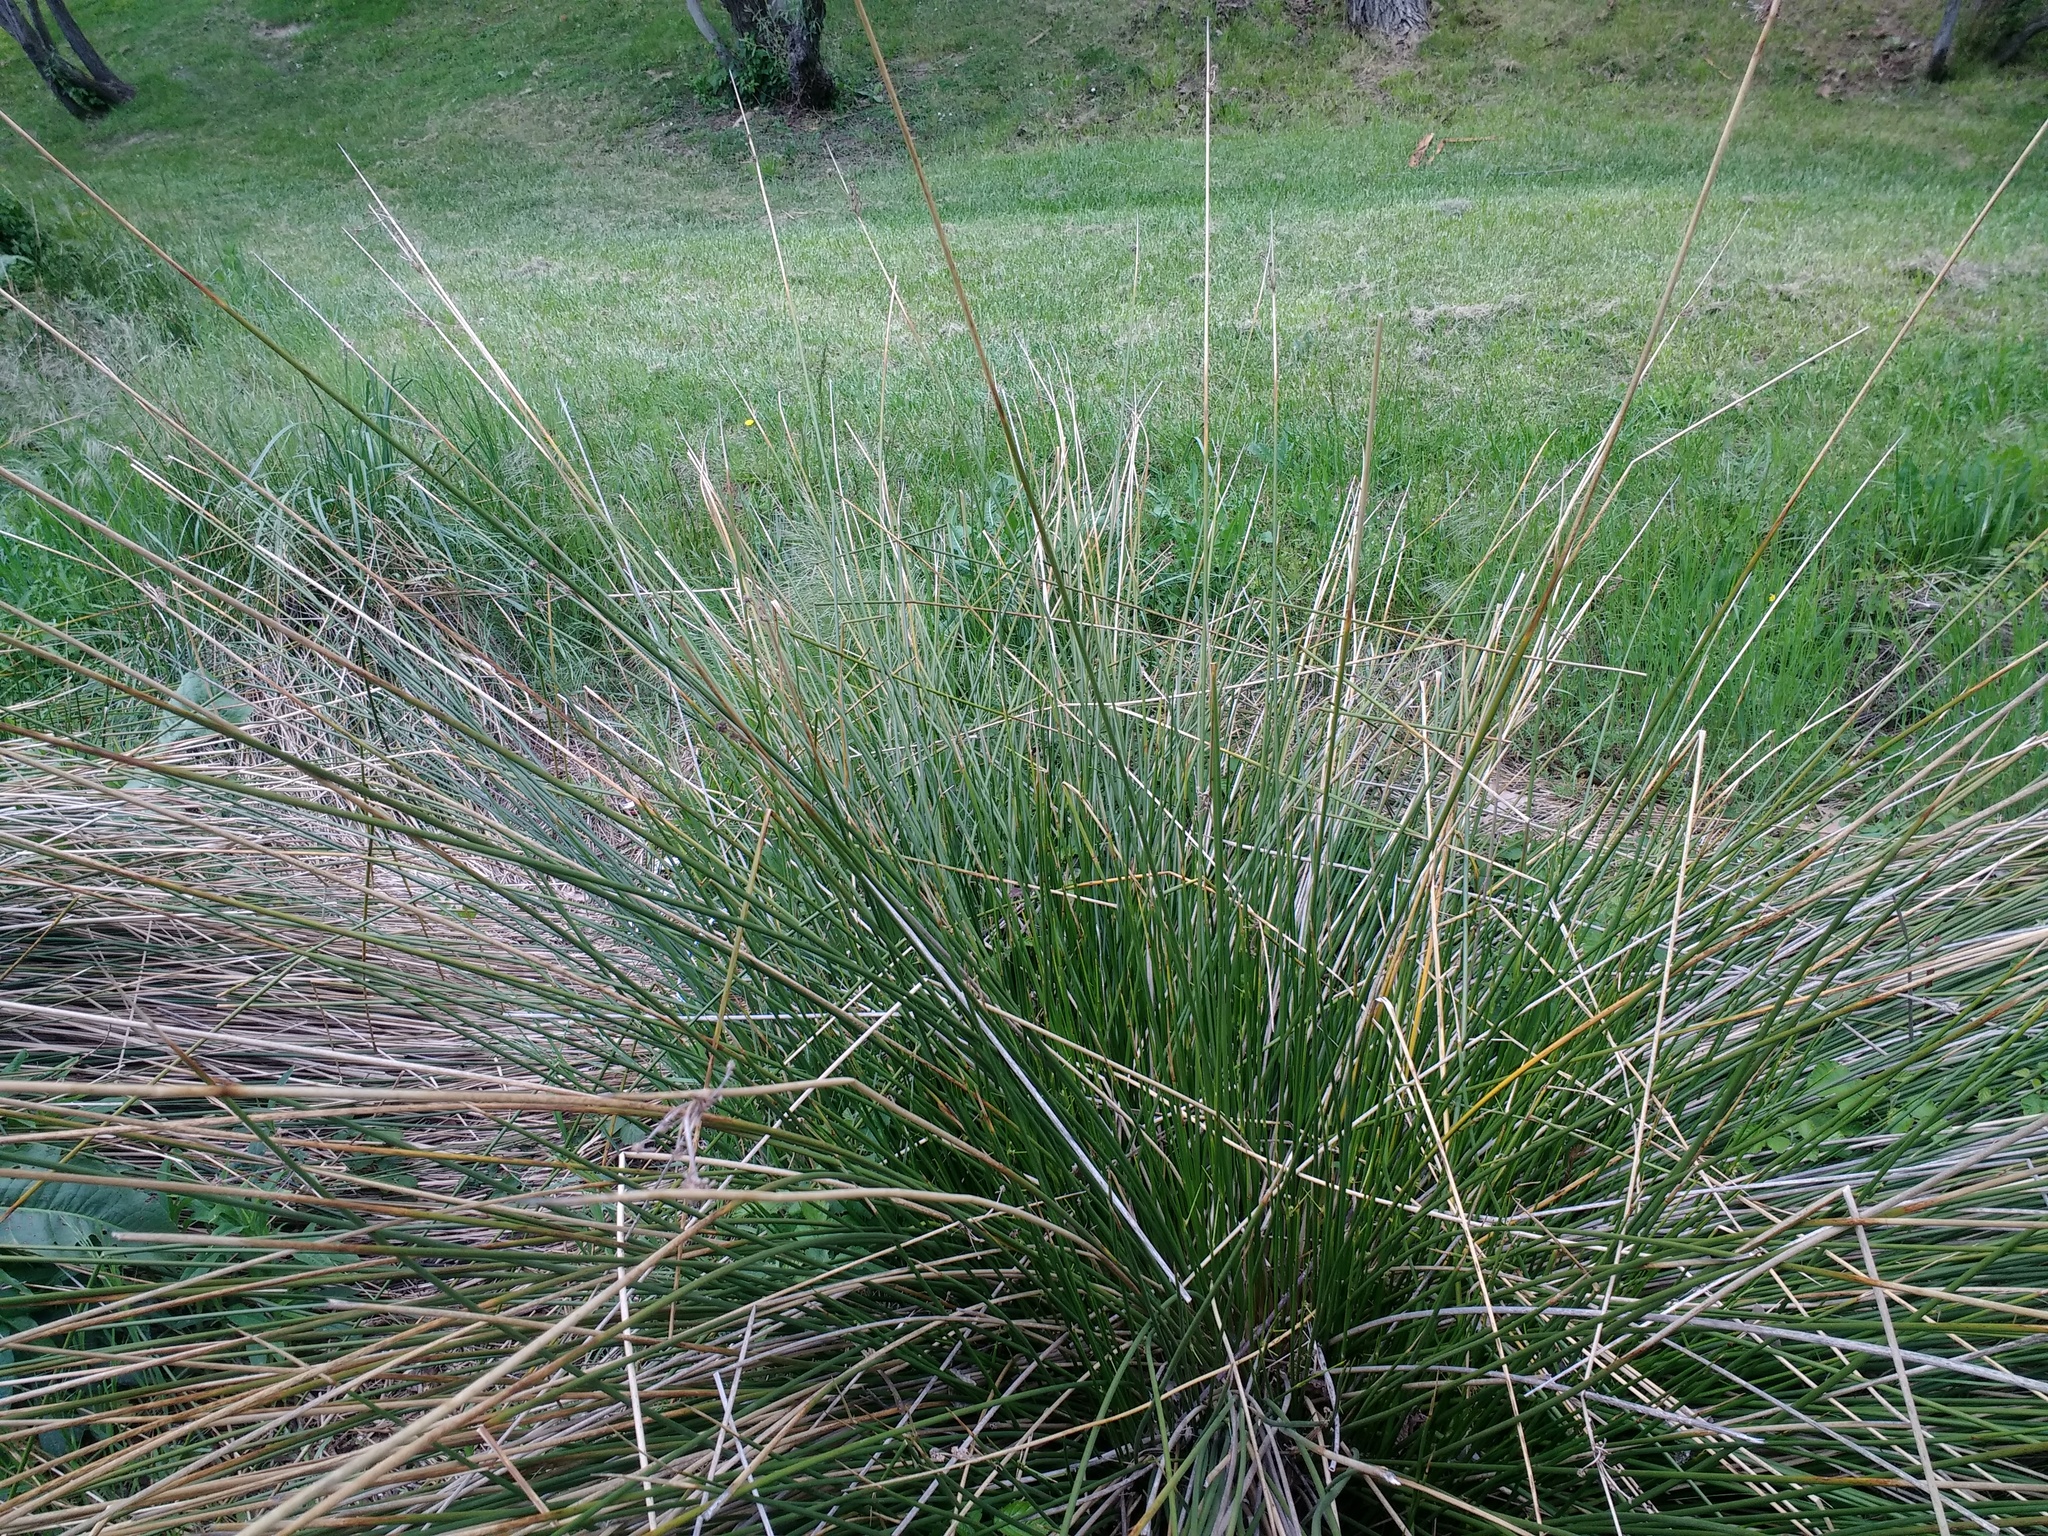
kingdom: Plantae
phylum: Tracheophyta
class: Liliopsida
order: Poales
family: Cyperaceae
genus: Scirpoides
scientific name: Scirpoides holoschoenus
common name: Round-headed club-rush
